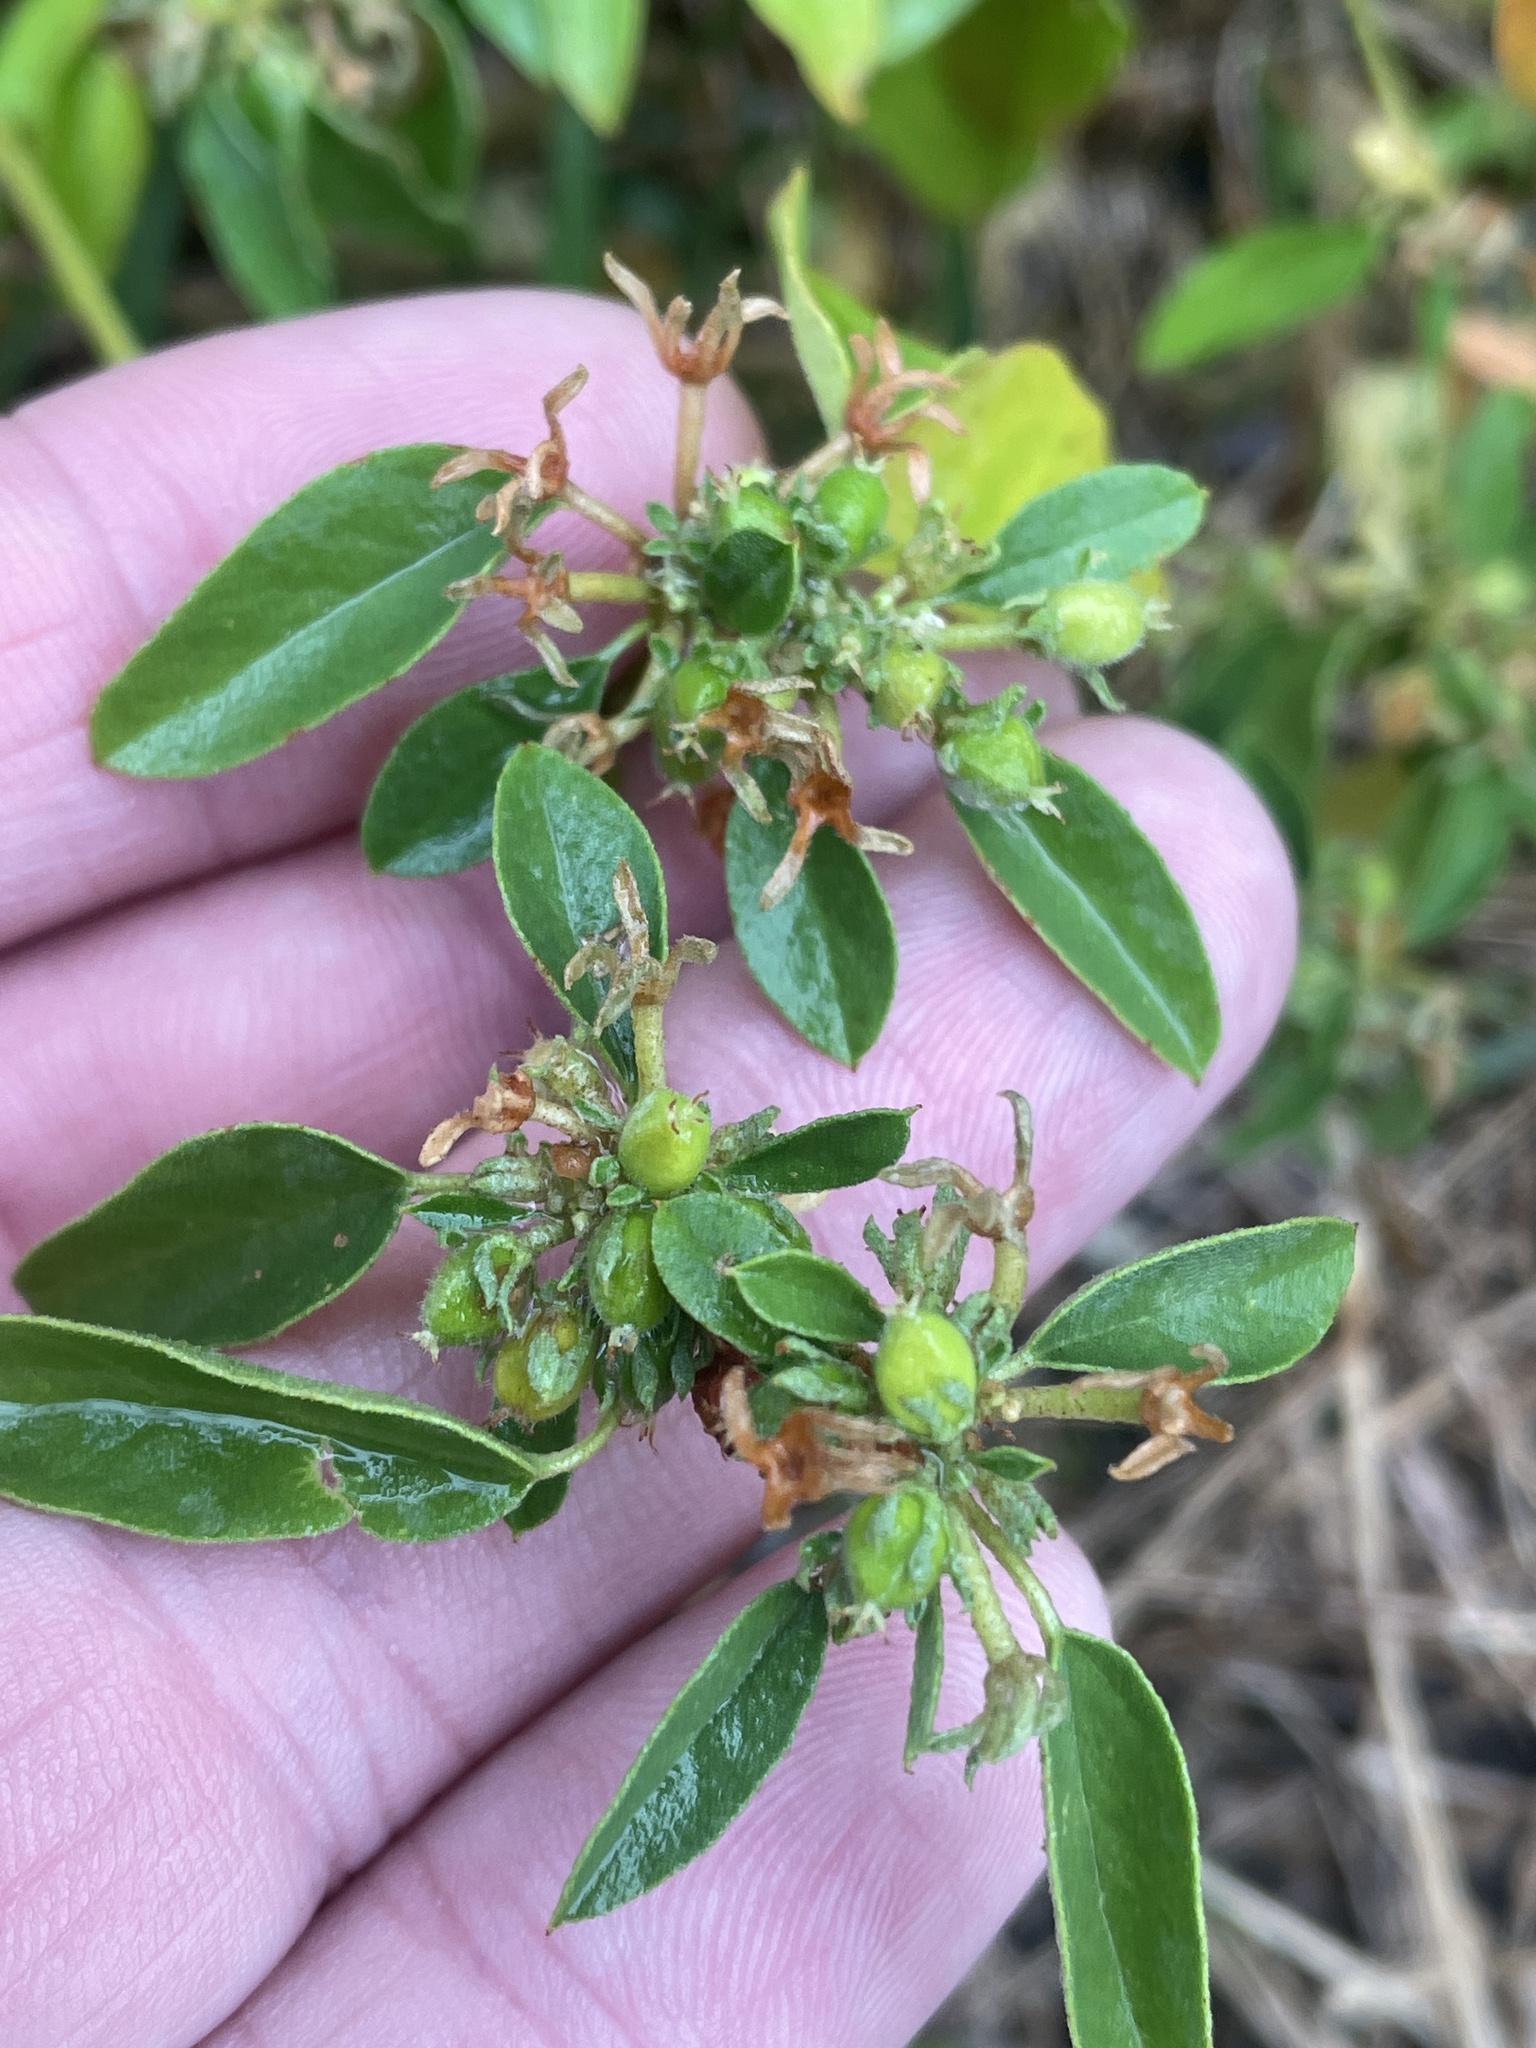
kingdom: Plantae
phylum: Tracheophyta
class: Magnoliopsida
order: Malpighiales
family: Euphorbiaceae
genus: Croton
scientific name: Croton monanthogynus
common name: One-seed croton
